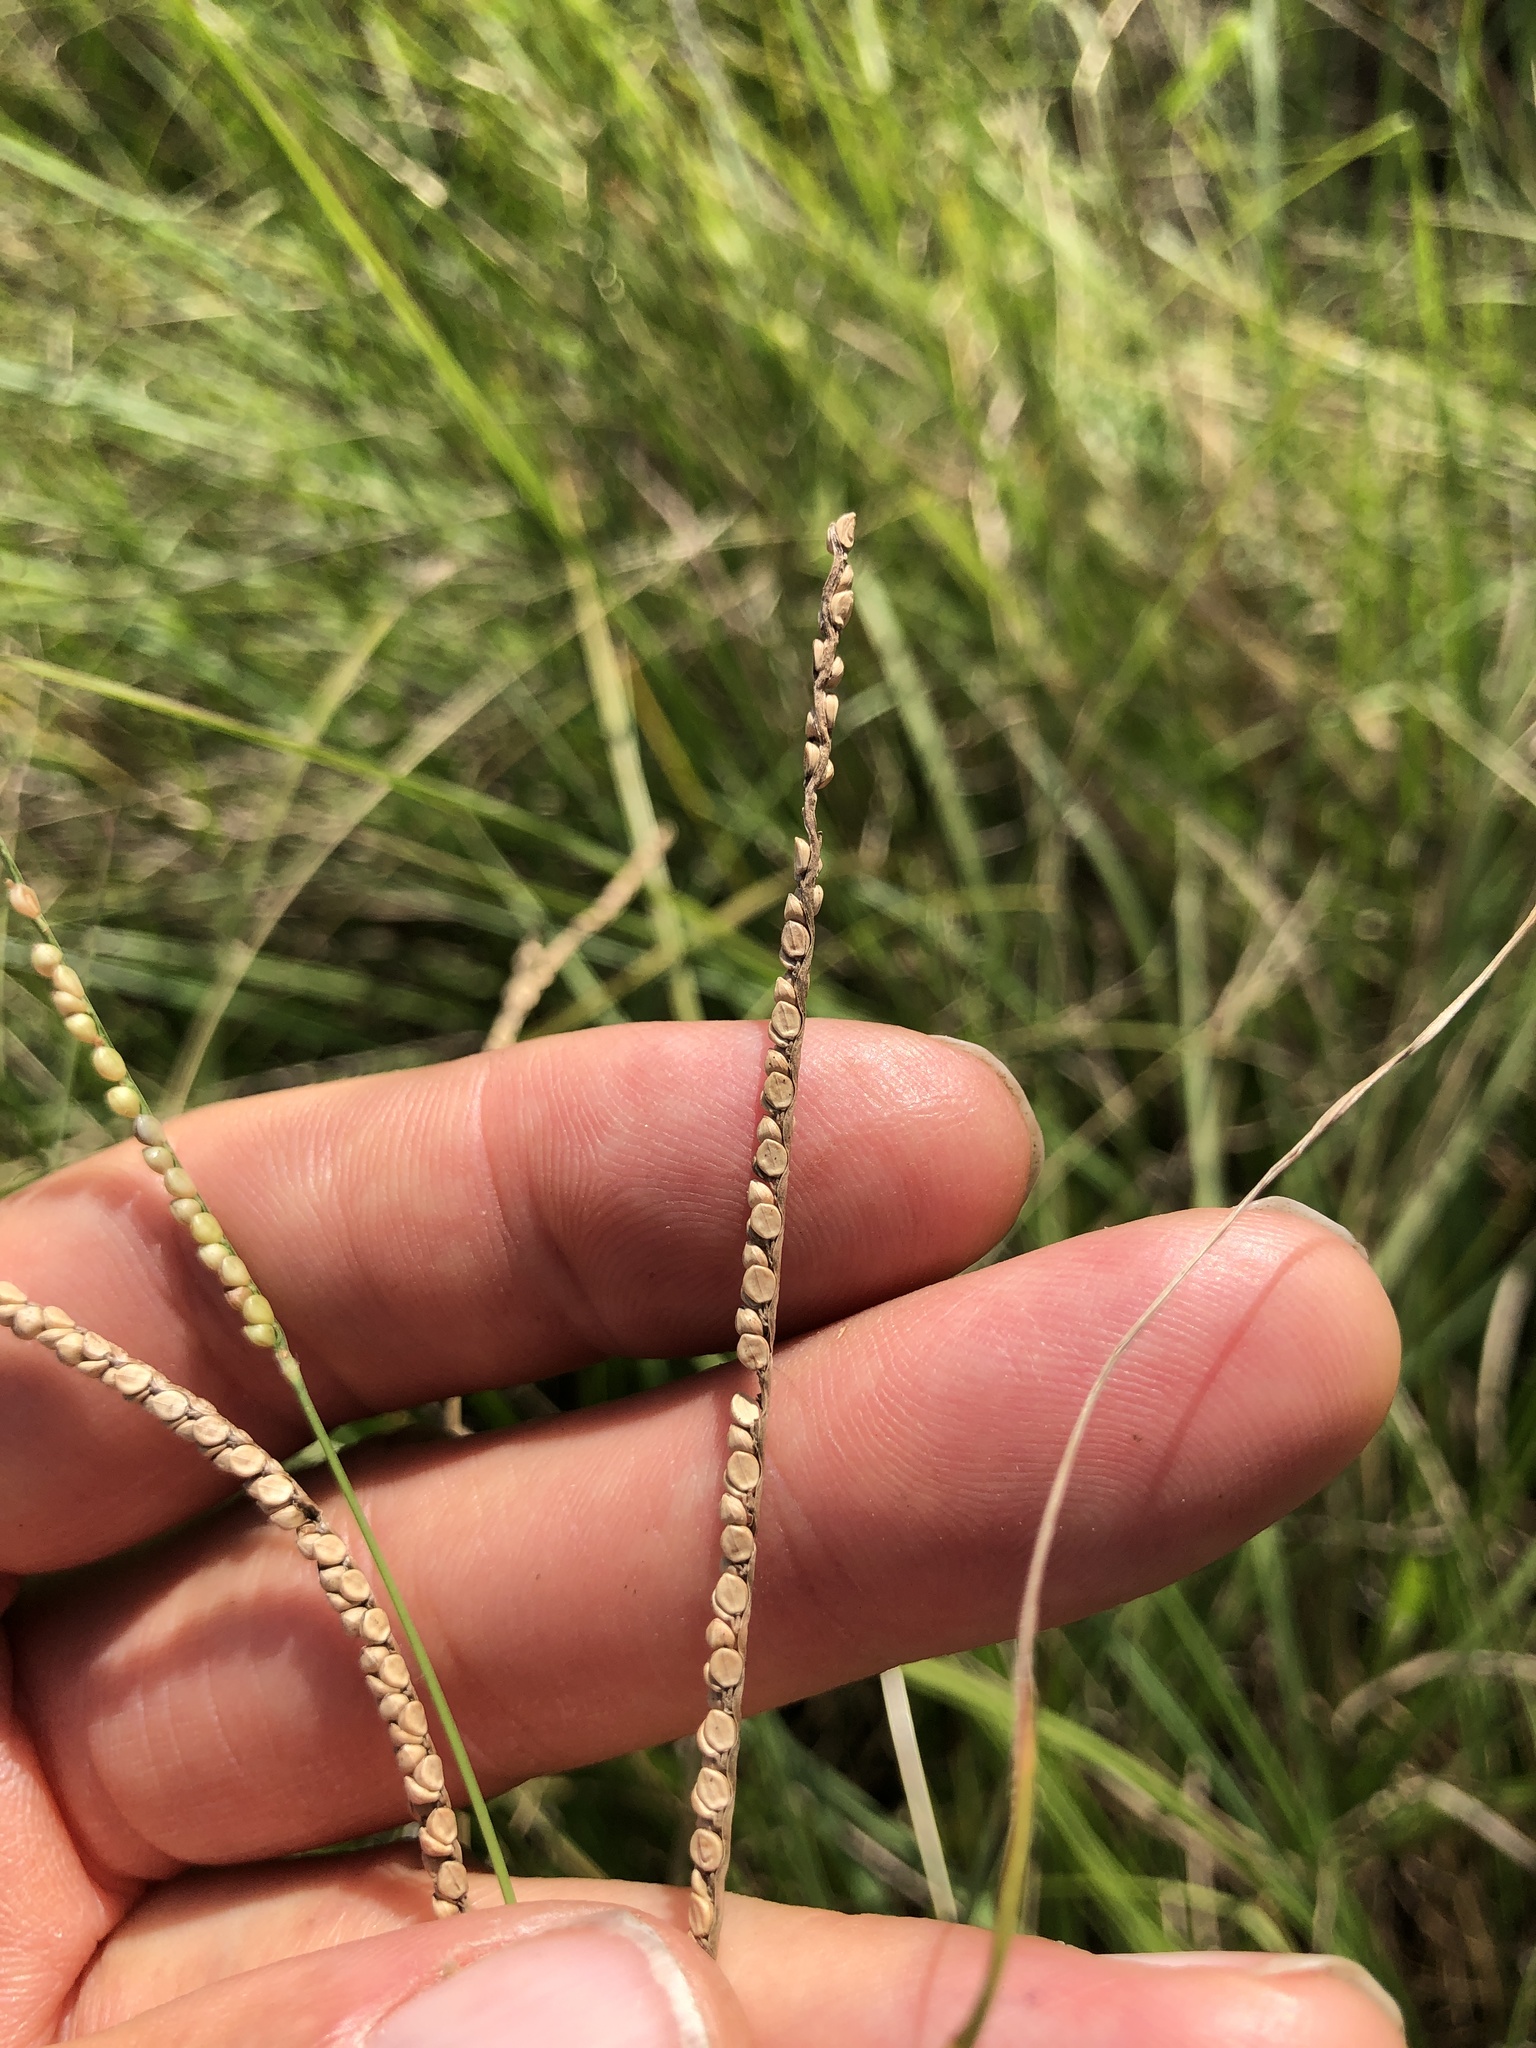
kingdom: Plantae
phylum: Tracheophyta
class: Liliopsida
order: Poales
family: Poaceae
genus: Paspalum
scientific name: Paspalum setaceum
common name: Slender paspalum
